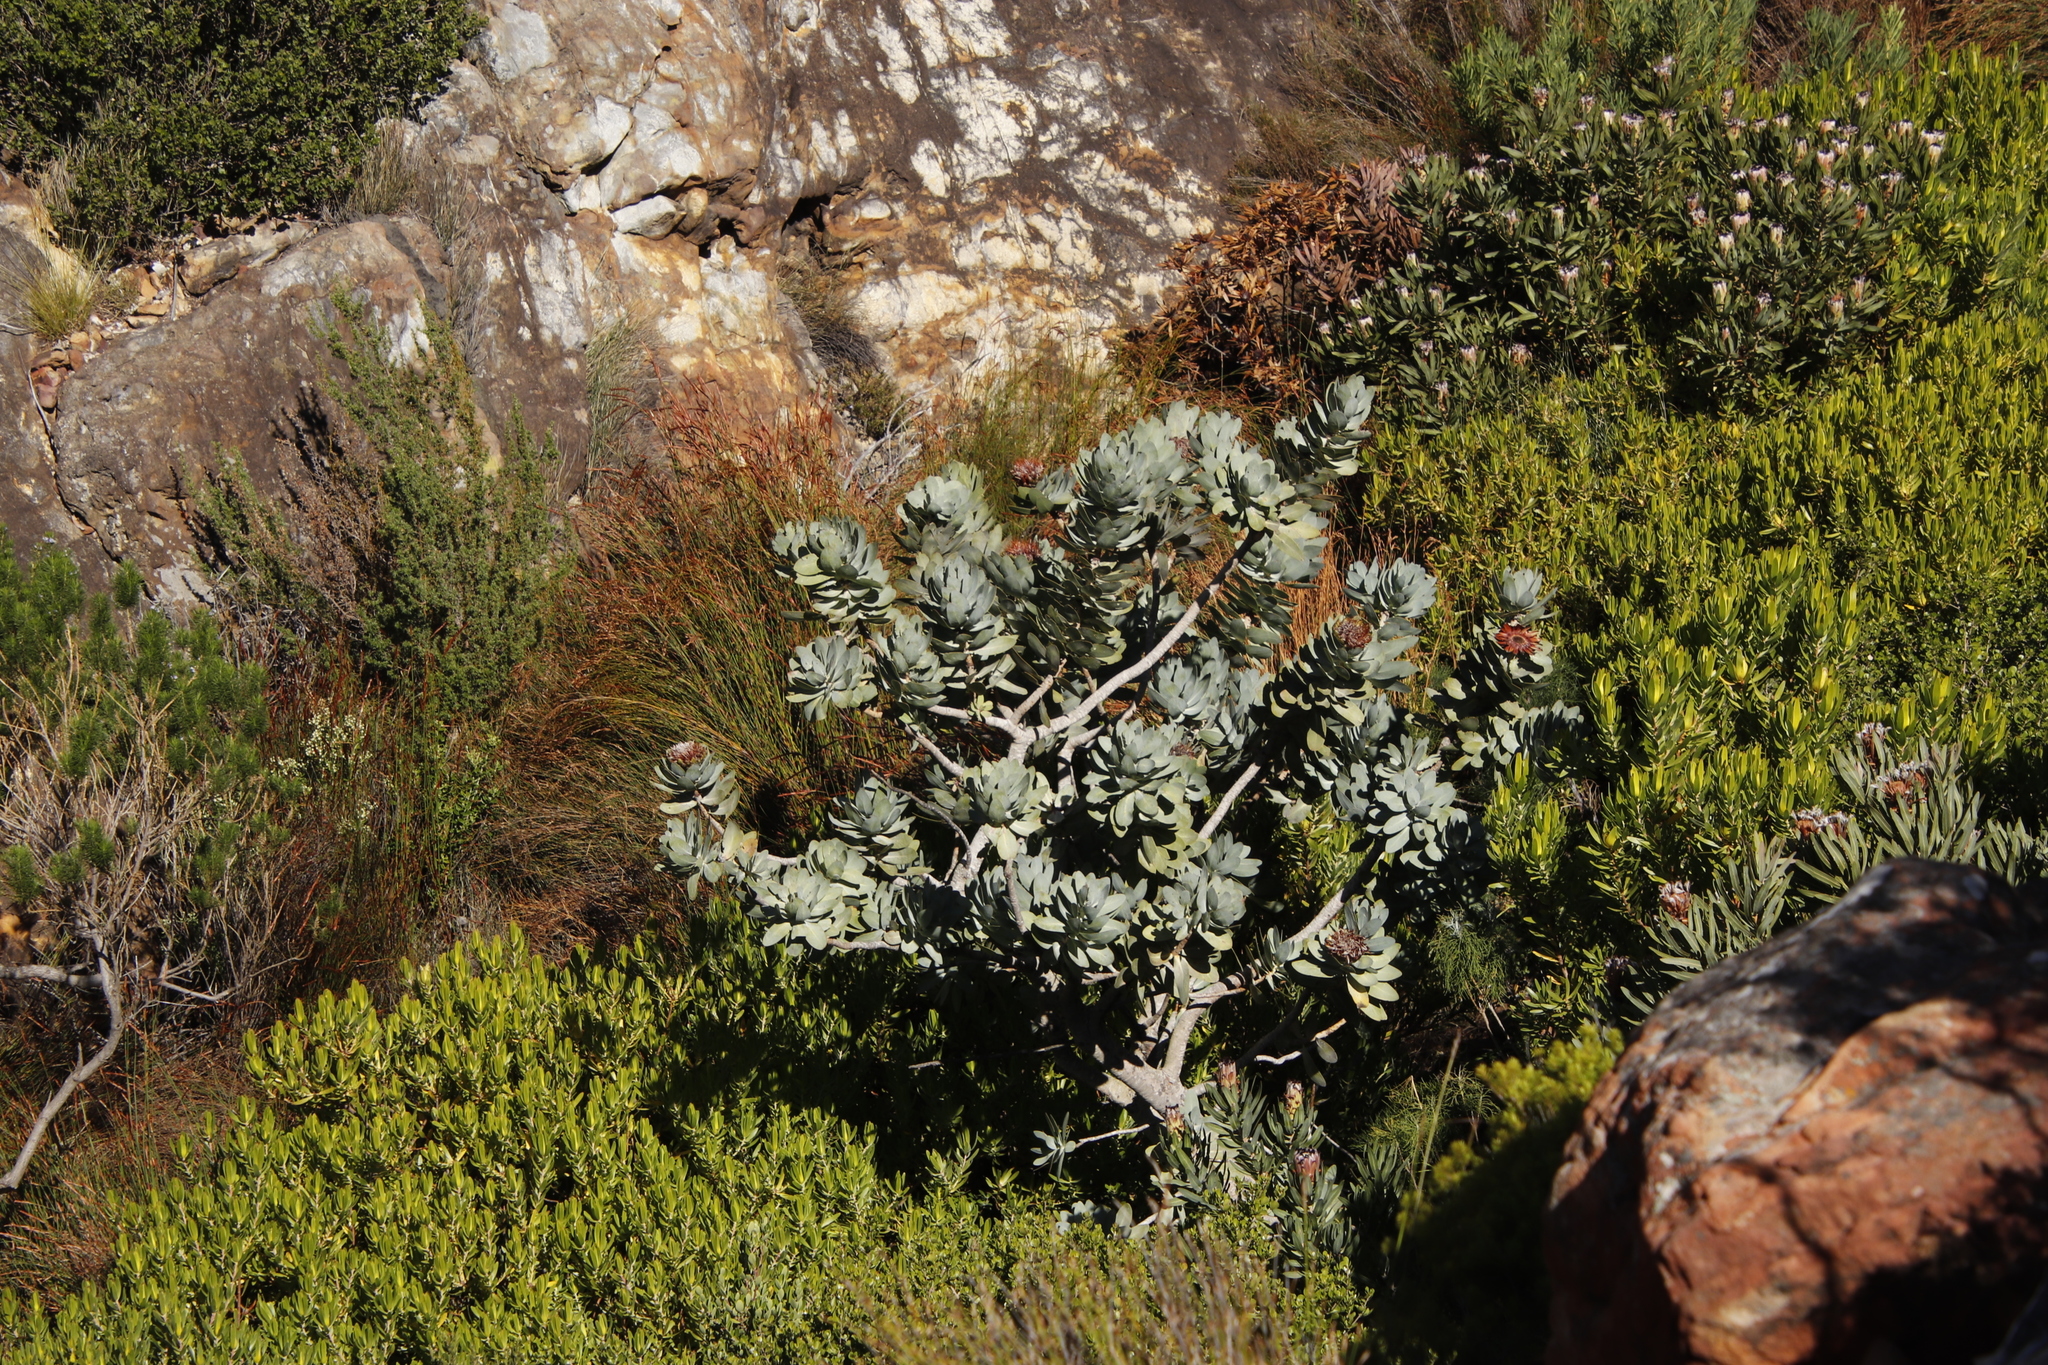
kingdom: Plantae
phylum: Tracheophyta
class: Magnoliopsida
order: Proteales
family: Proteaceae
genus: Protea
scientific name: Protea nitida
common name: Tree protea
